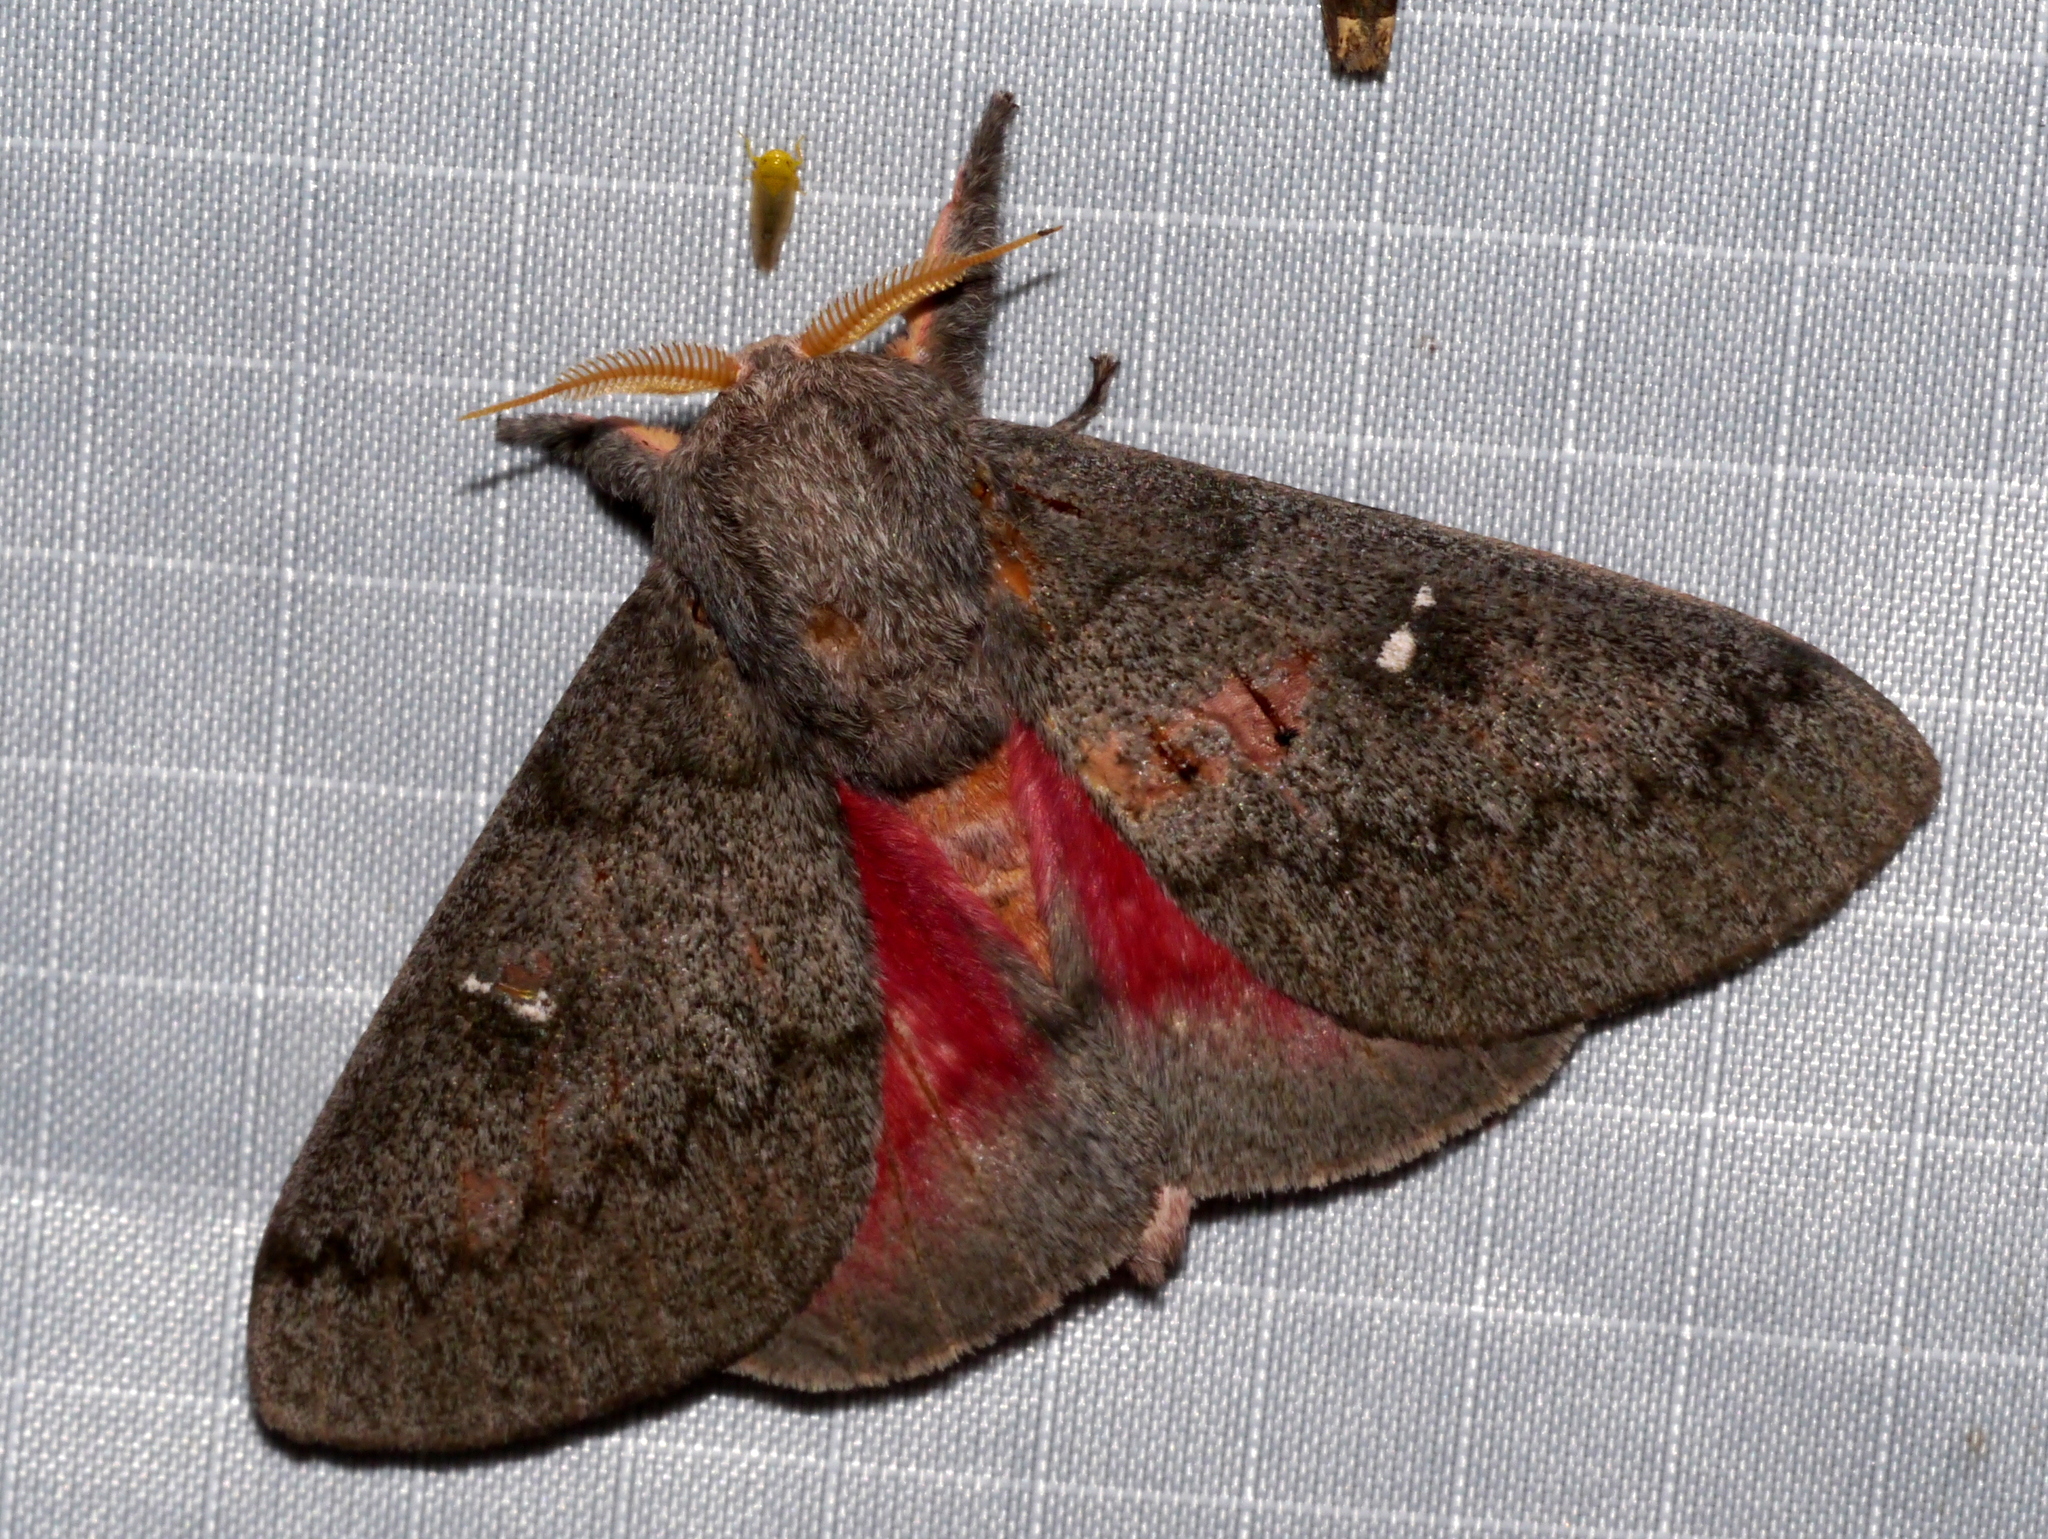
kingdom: Animalia
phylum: Arthropoda
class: Insecta
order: Lepidoptera
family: Saturniidae
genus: Syssphinx
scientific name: Syssphinx hubbardi
